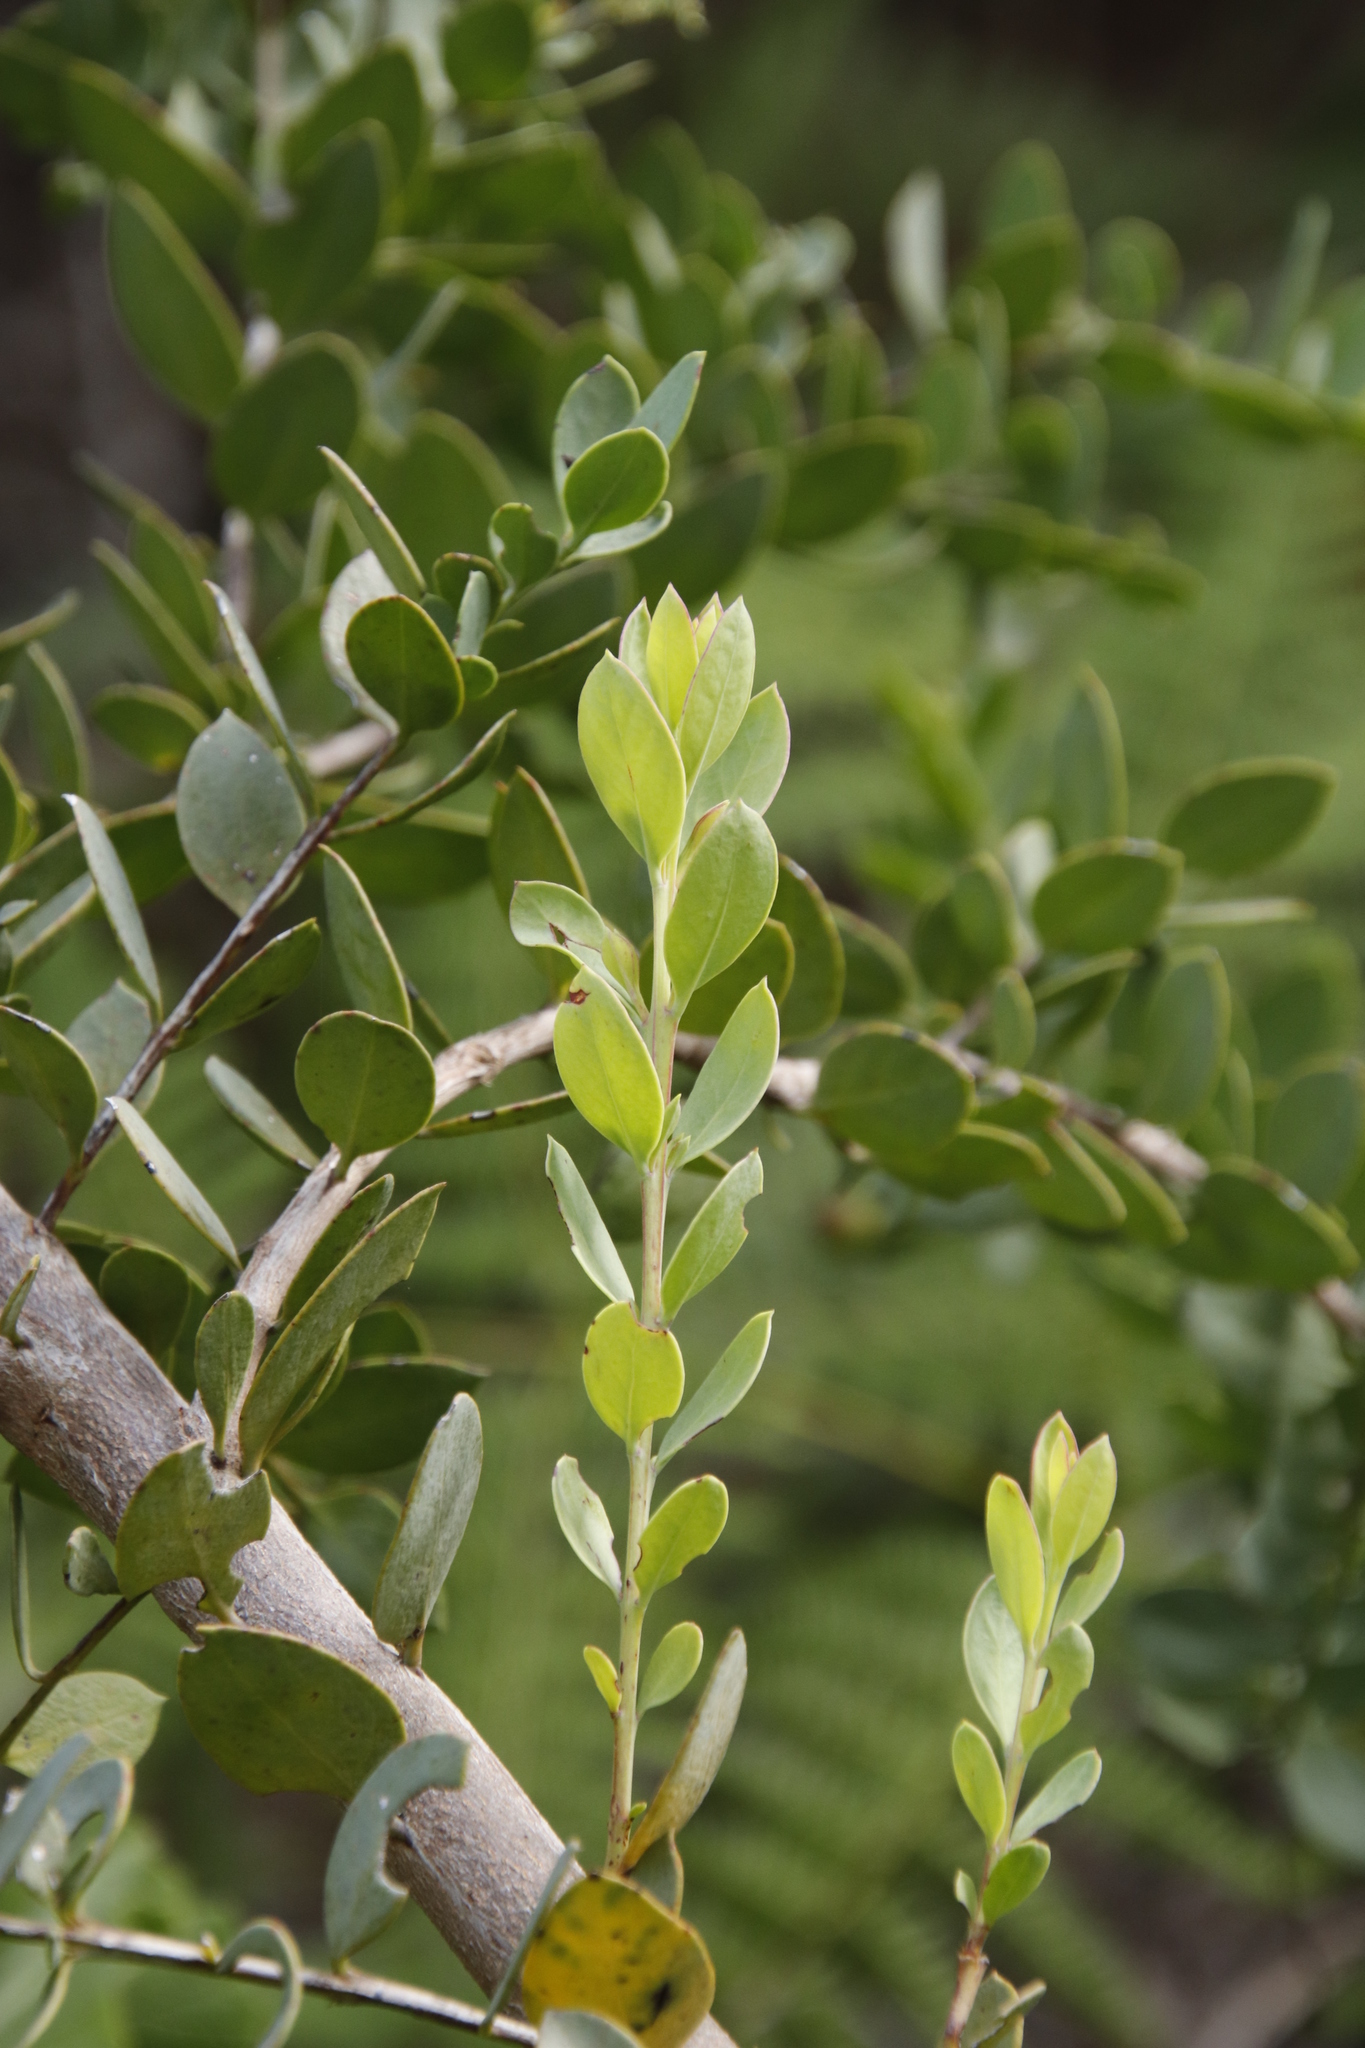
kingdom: Plantae
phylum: Tracheophyta
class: Magnoliopsida
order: Santalales
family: Santalaceae
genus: Osyris
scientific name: Osyris compressa
